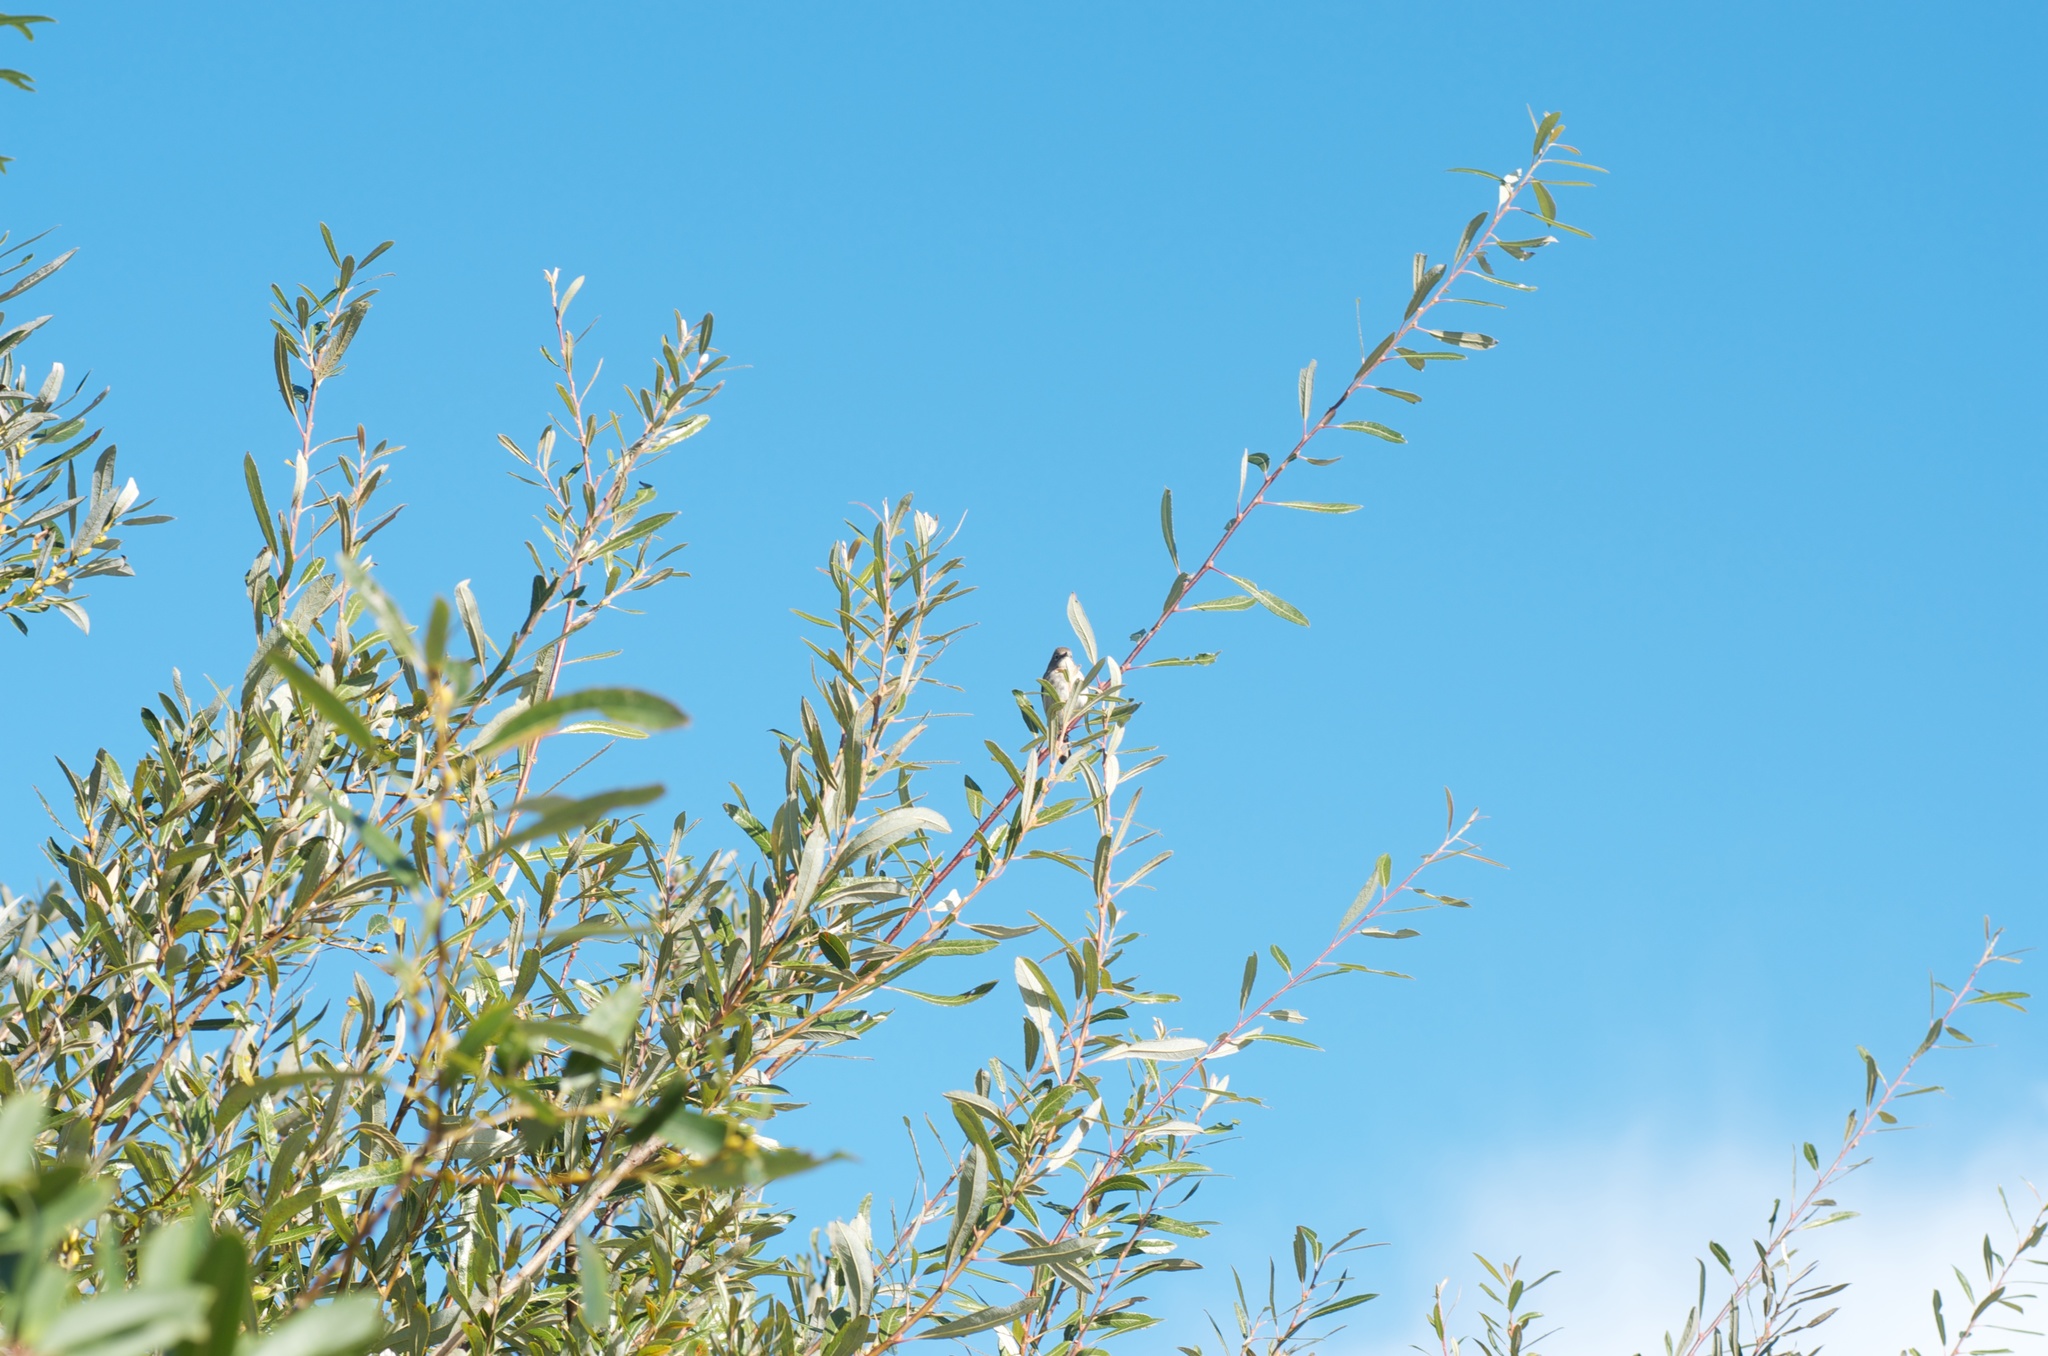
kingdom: Animalia
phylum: Chordata
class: Aves
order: Passeriformes
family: Parulidae
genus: Setophaga
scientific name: Setophaga coronata
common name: Myrtle warbler
